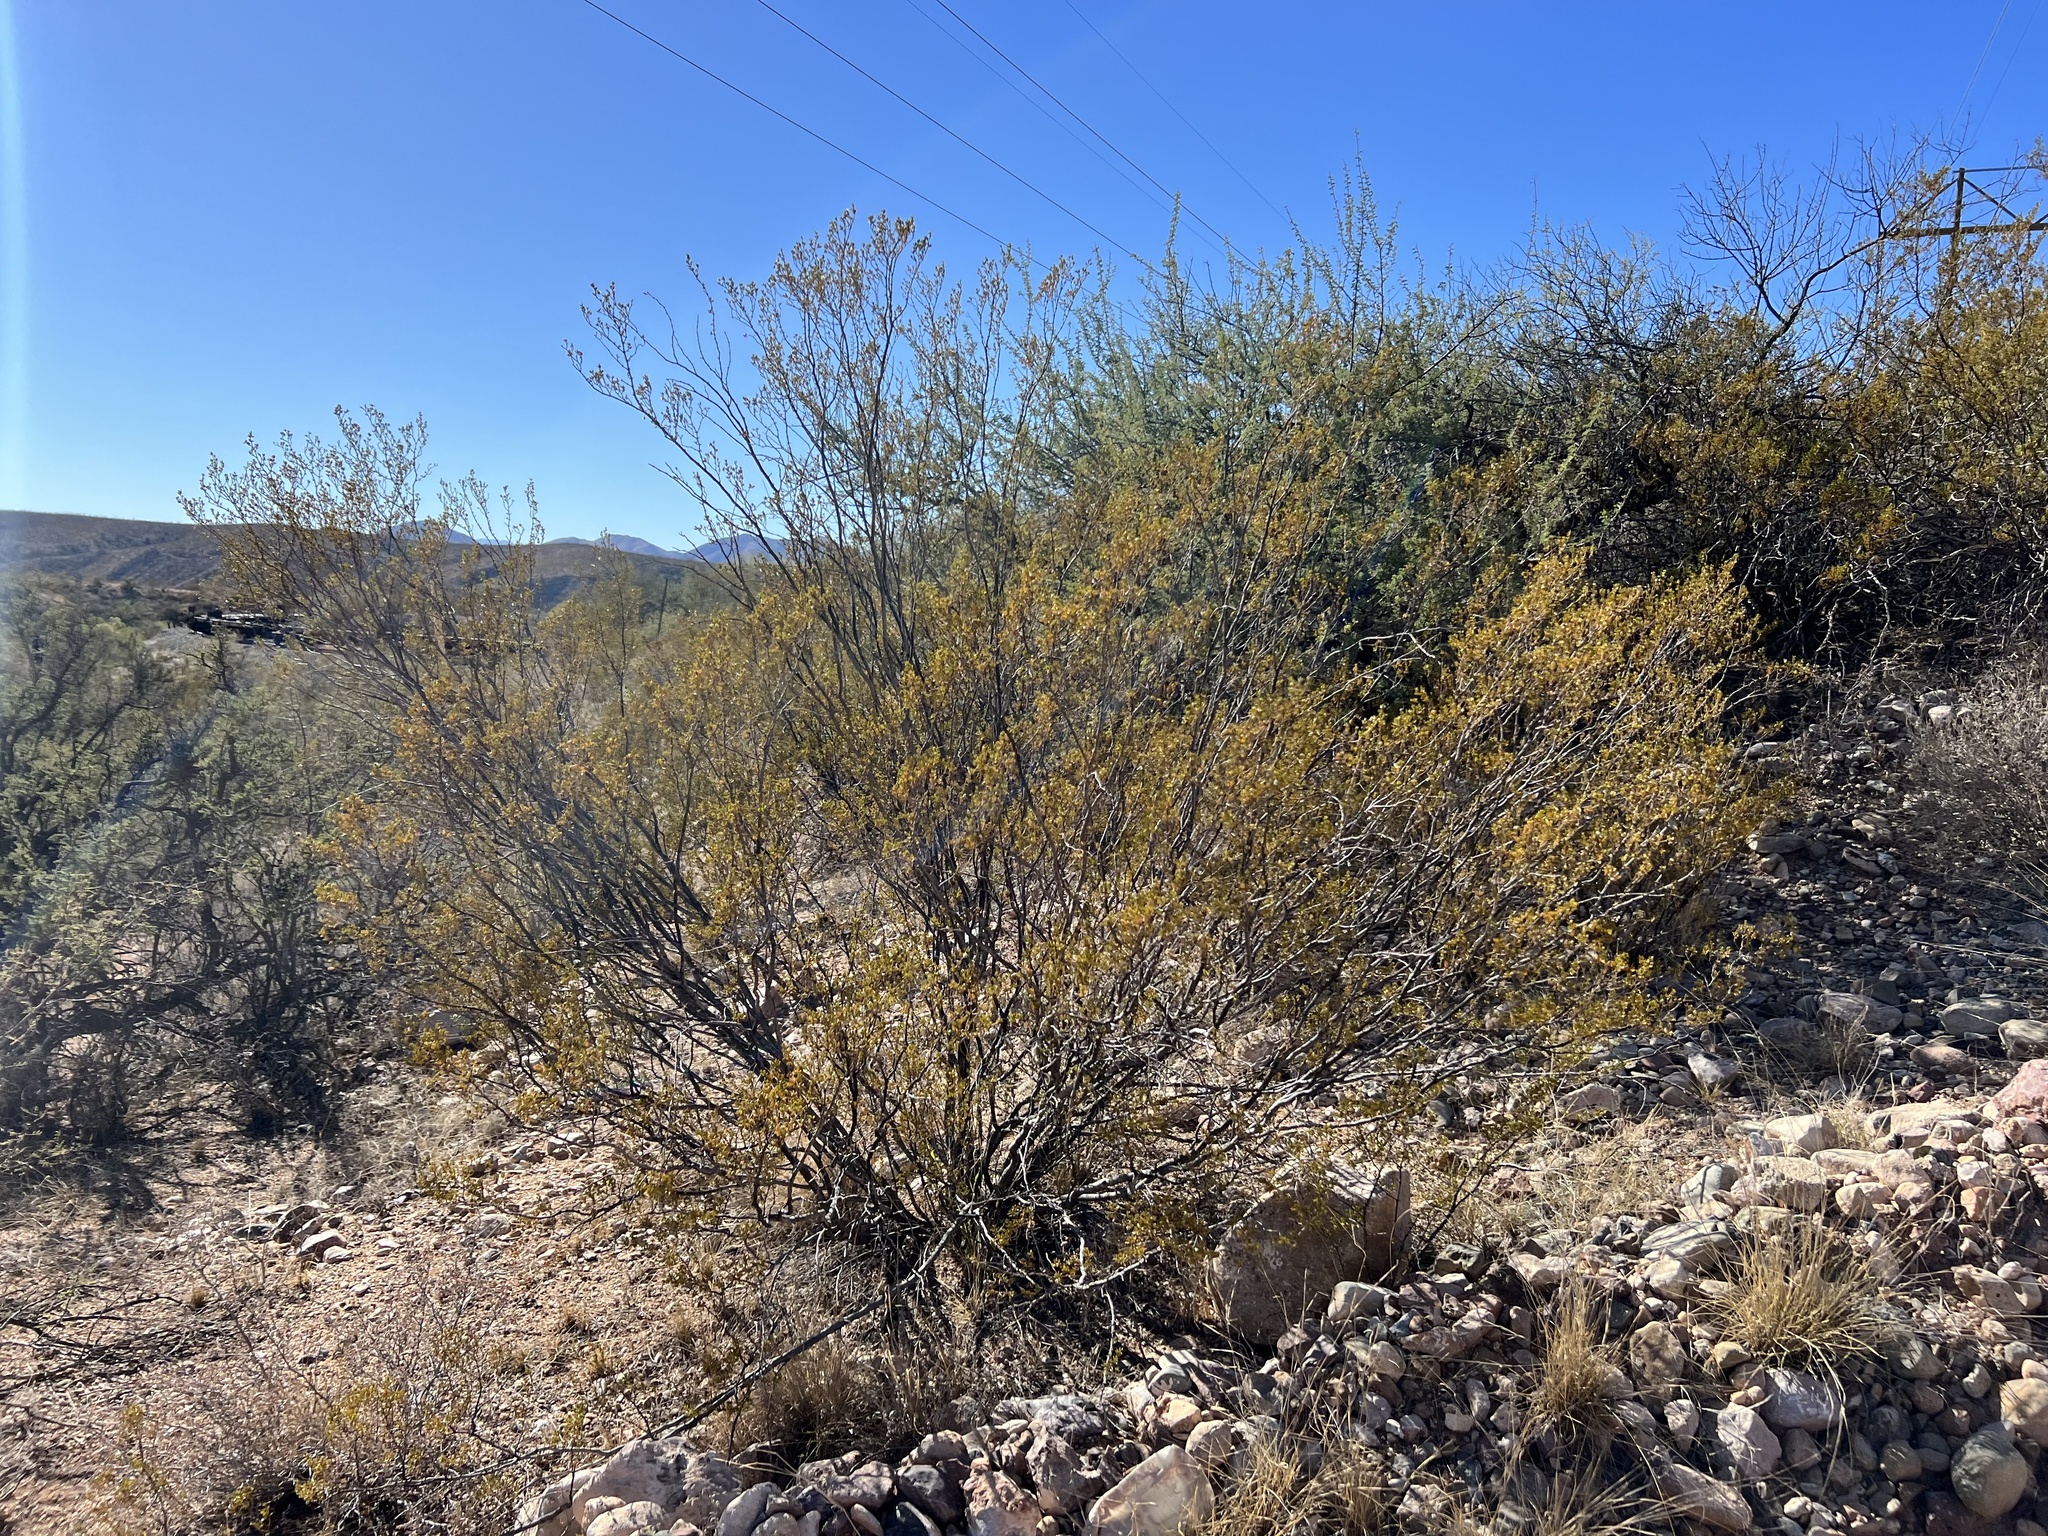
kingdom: Plantae
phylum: Tracheophyta
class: Magnoliopsida
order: Zygophyllales
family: Zygophyllaceae
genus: Larrea
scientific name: Larrea tridentata
